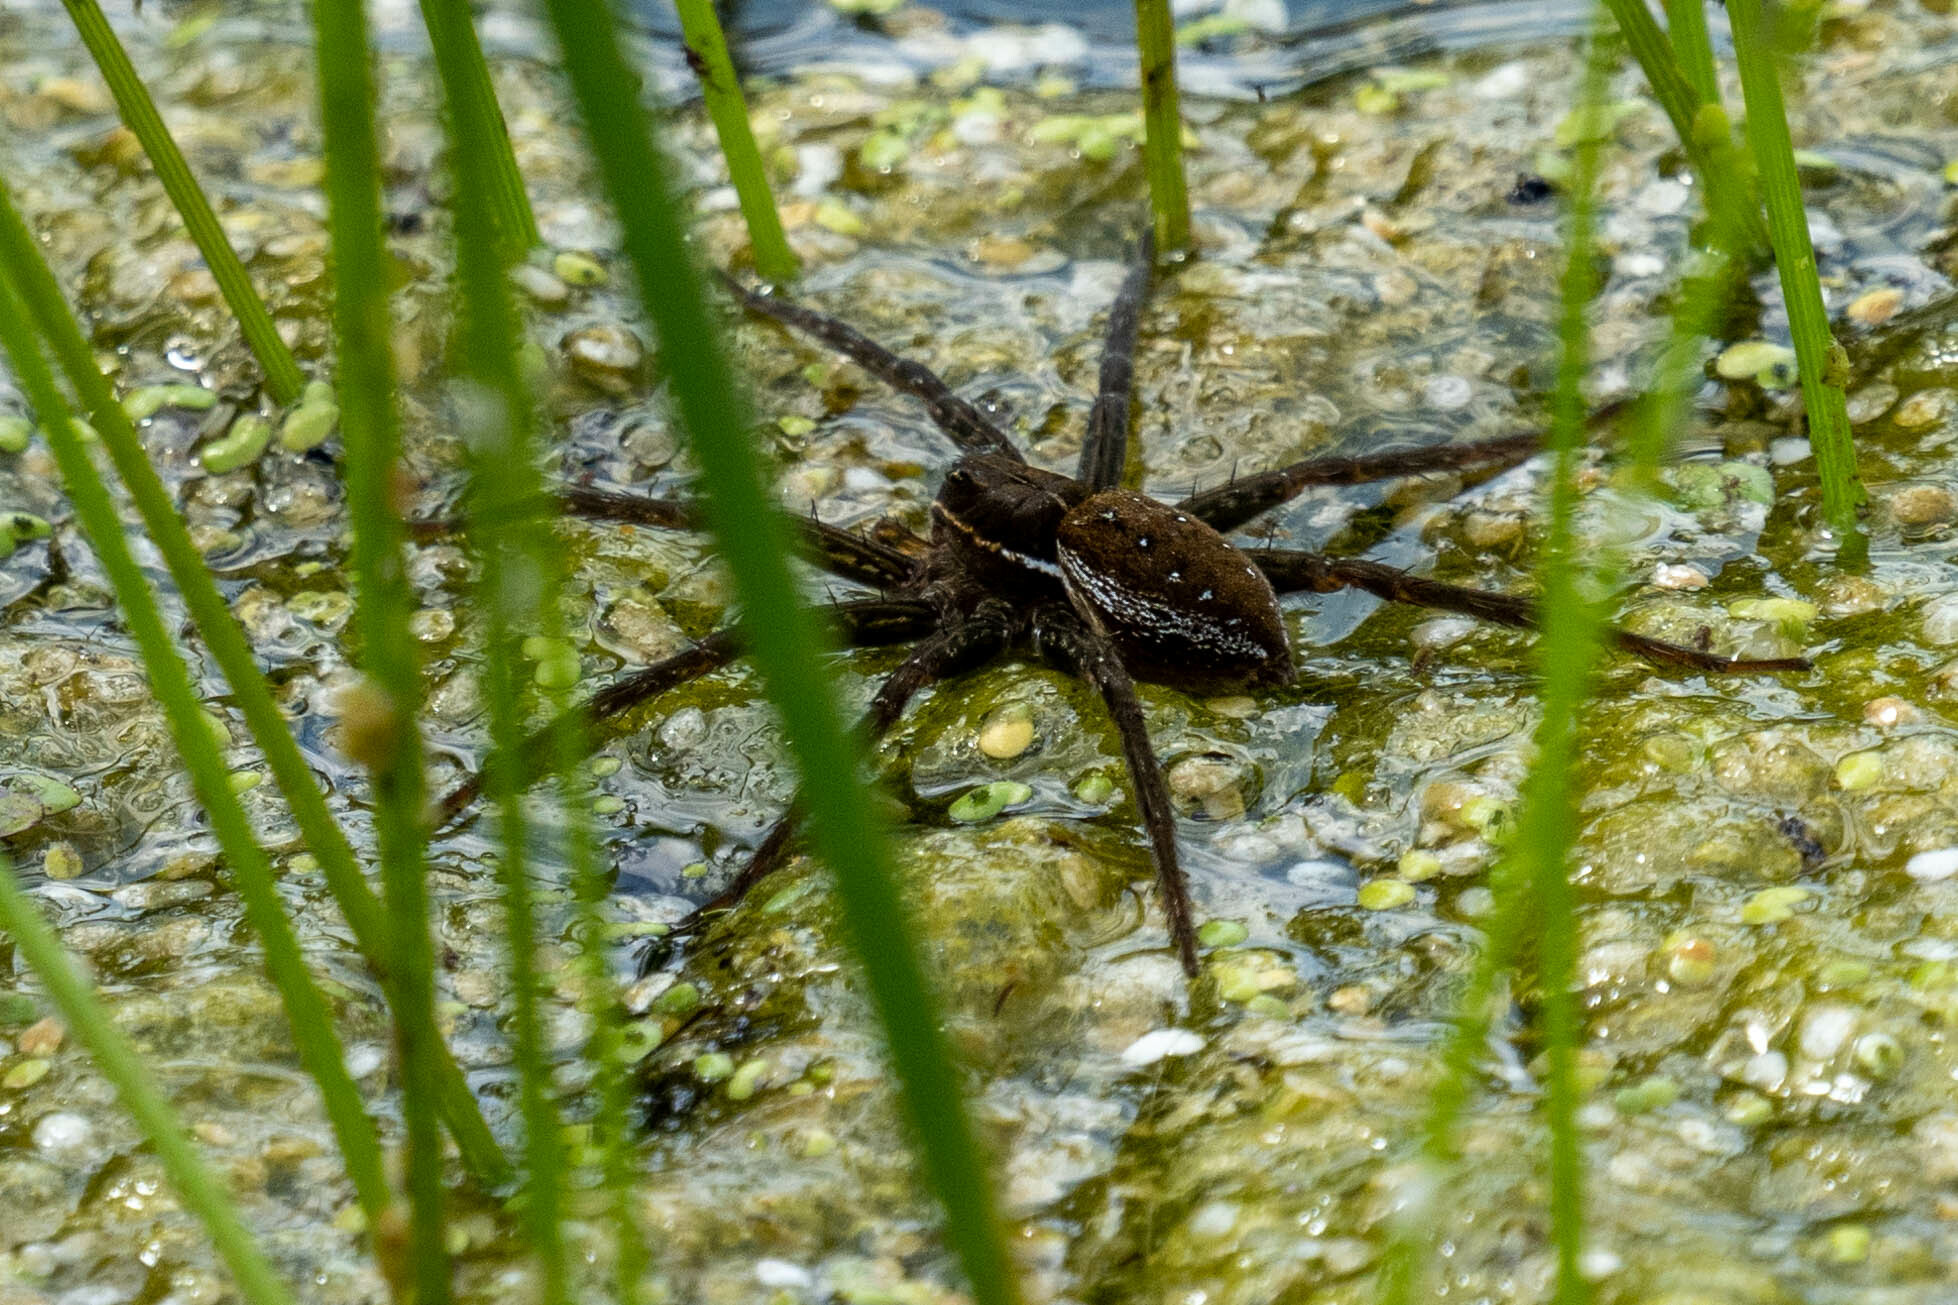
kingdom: Animalia
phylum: Arthropoda
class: Arachnida
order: Araneae
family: Pisauridae
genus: Dolomedes
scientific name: Dolomedes triton
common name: Six-spotted fishing spider
